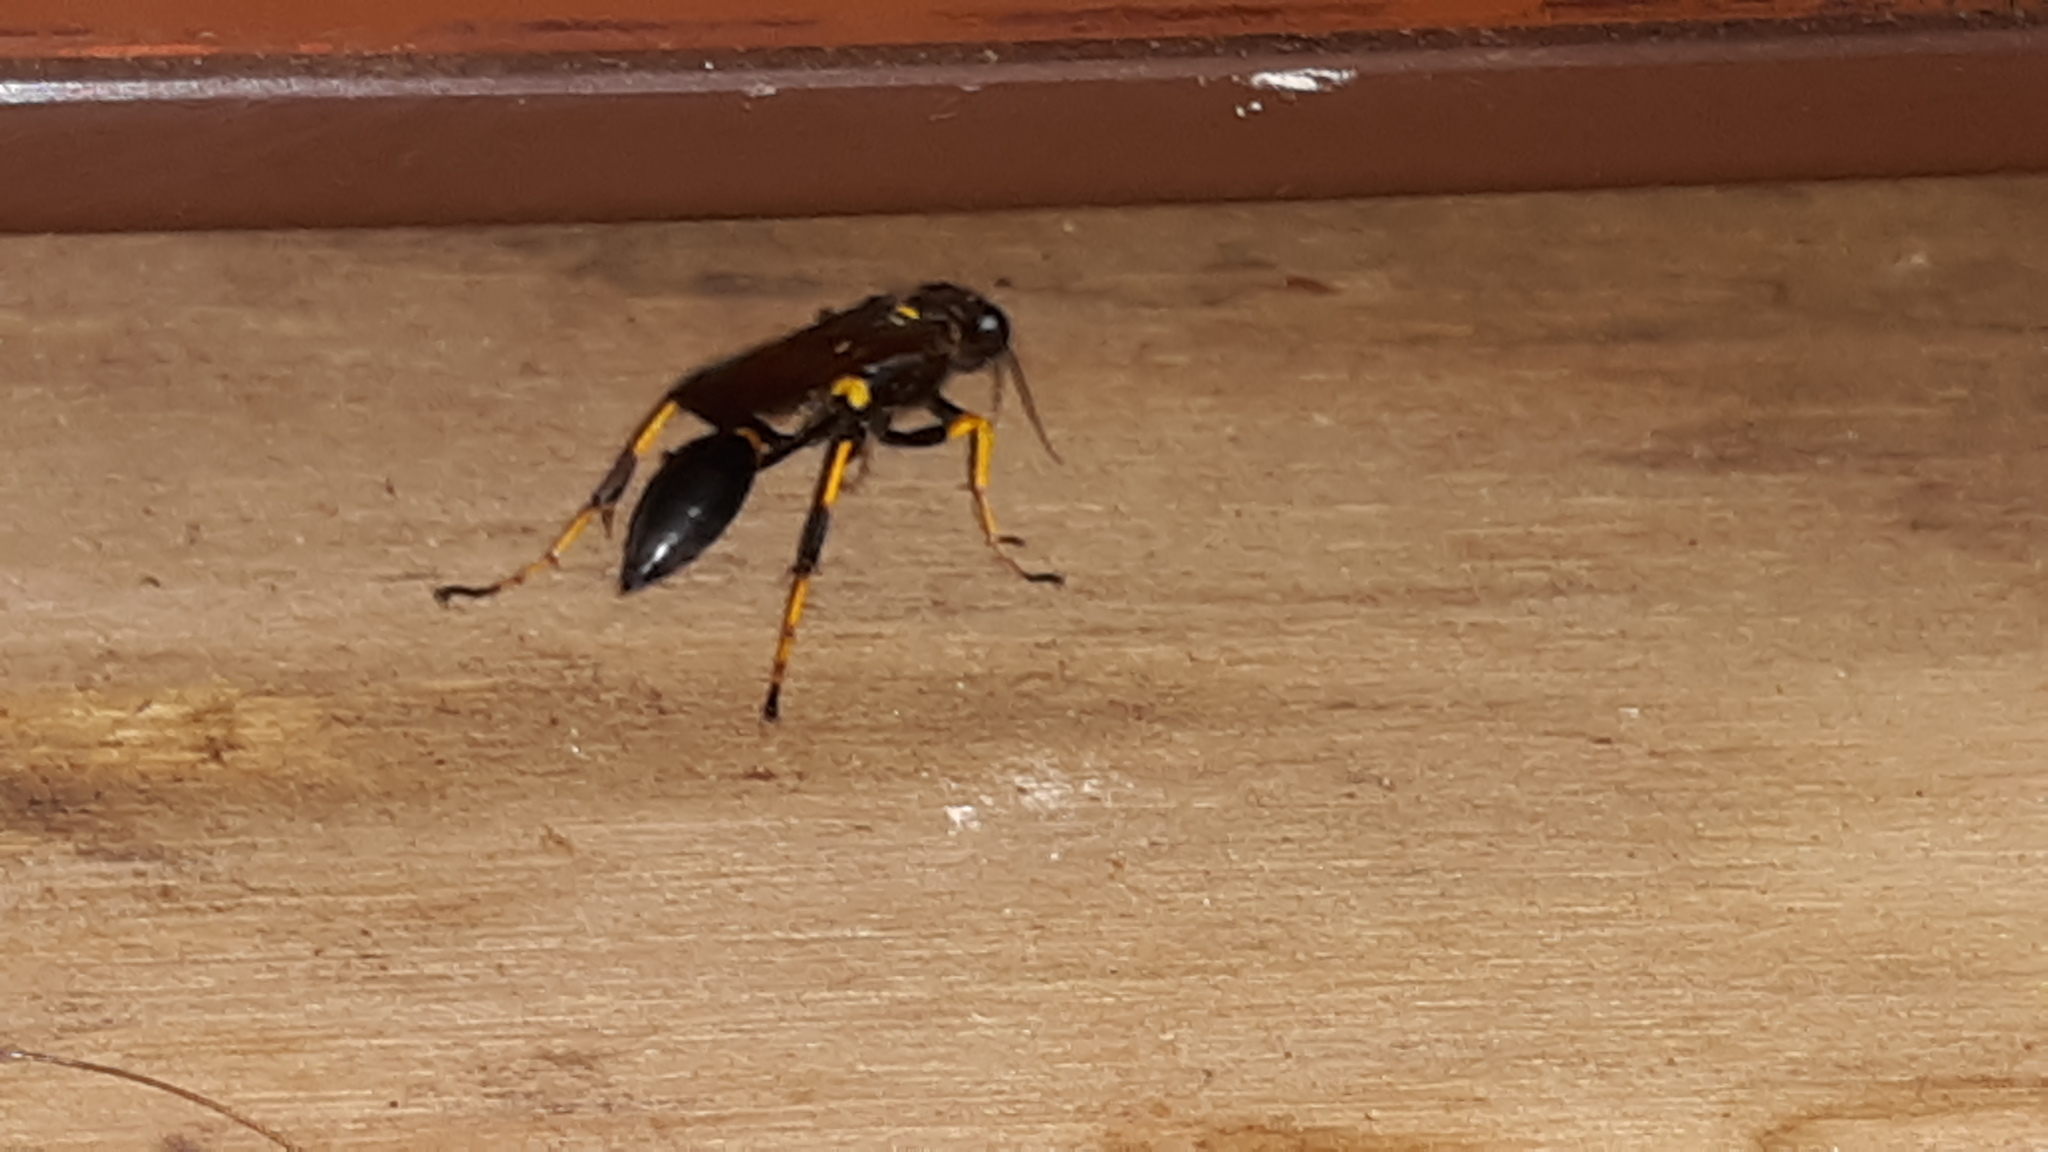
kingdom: Animalia
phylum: Arthropoda
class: Insecta
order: Hymenoptera
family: Sphecidae
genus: Sceliphron
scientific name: Sceliphron caementarium
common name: Mud dauber
